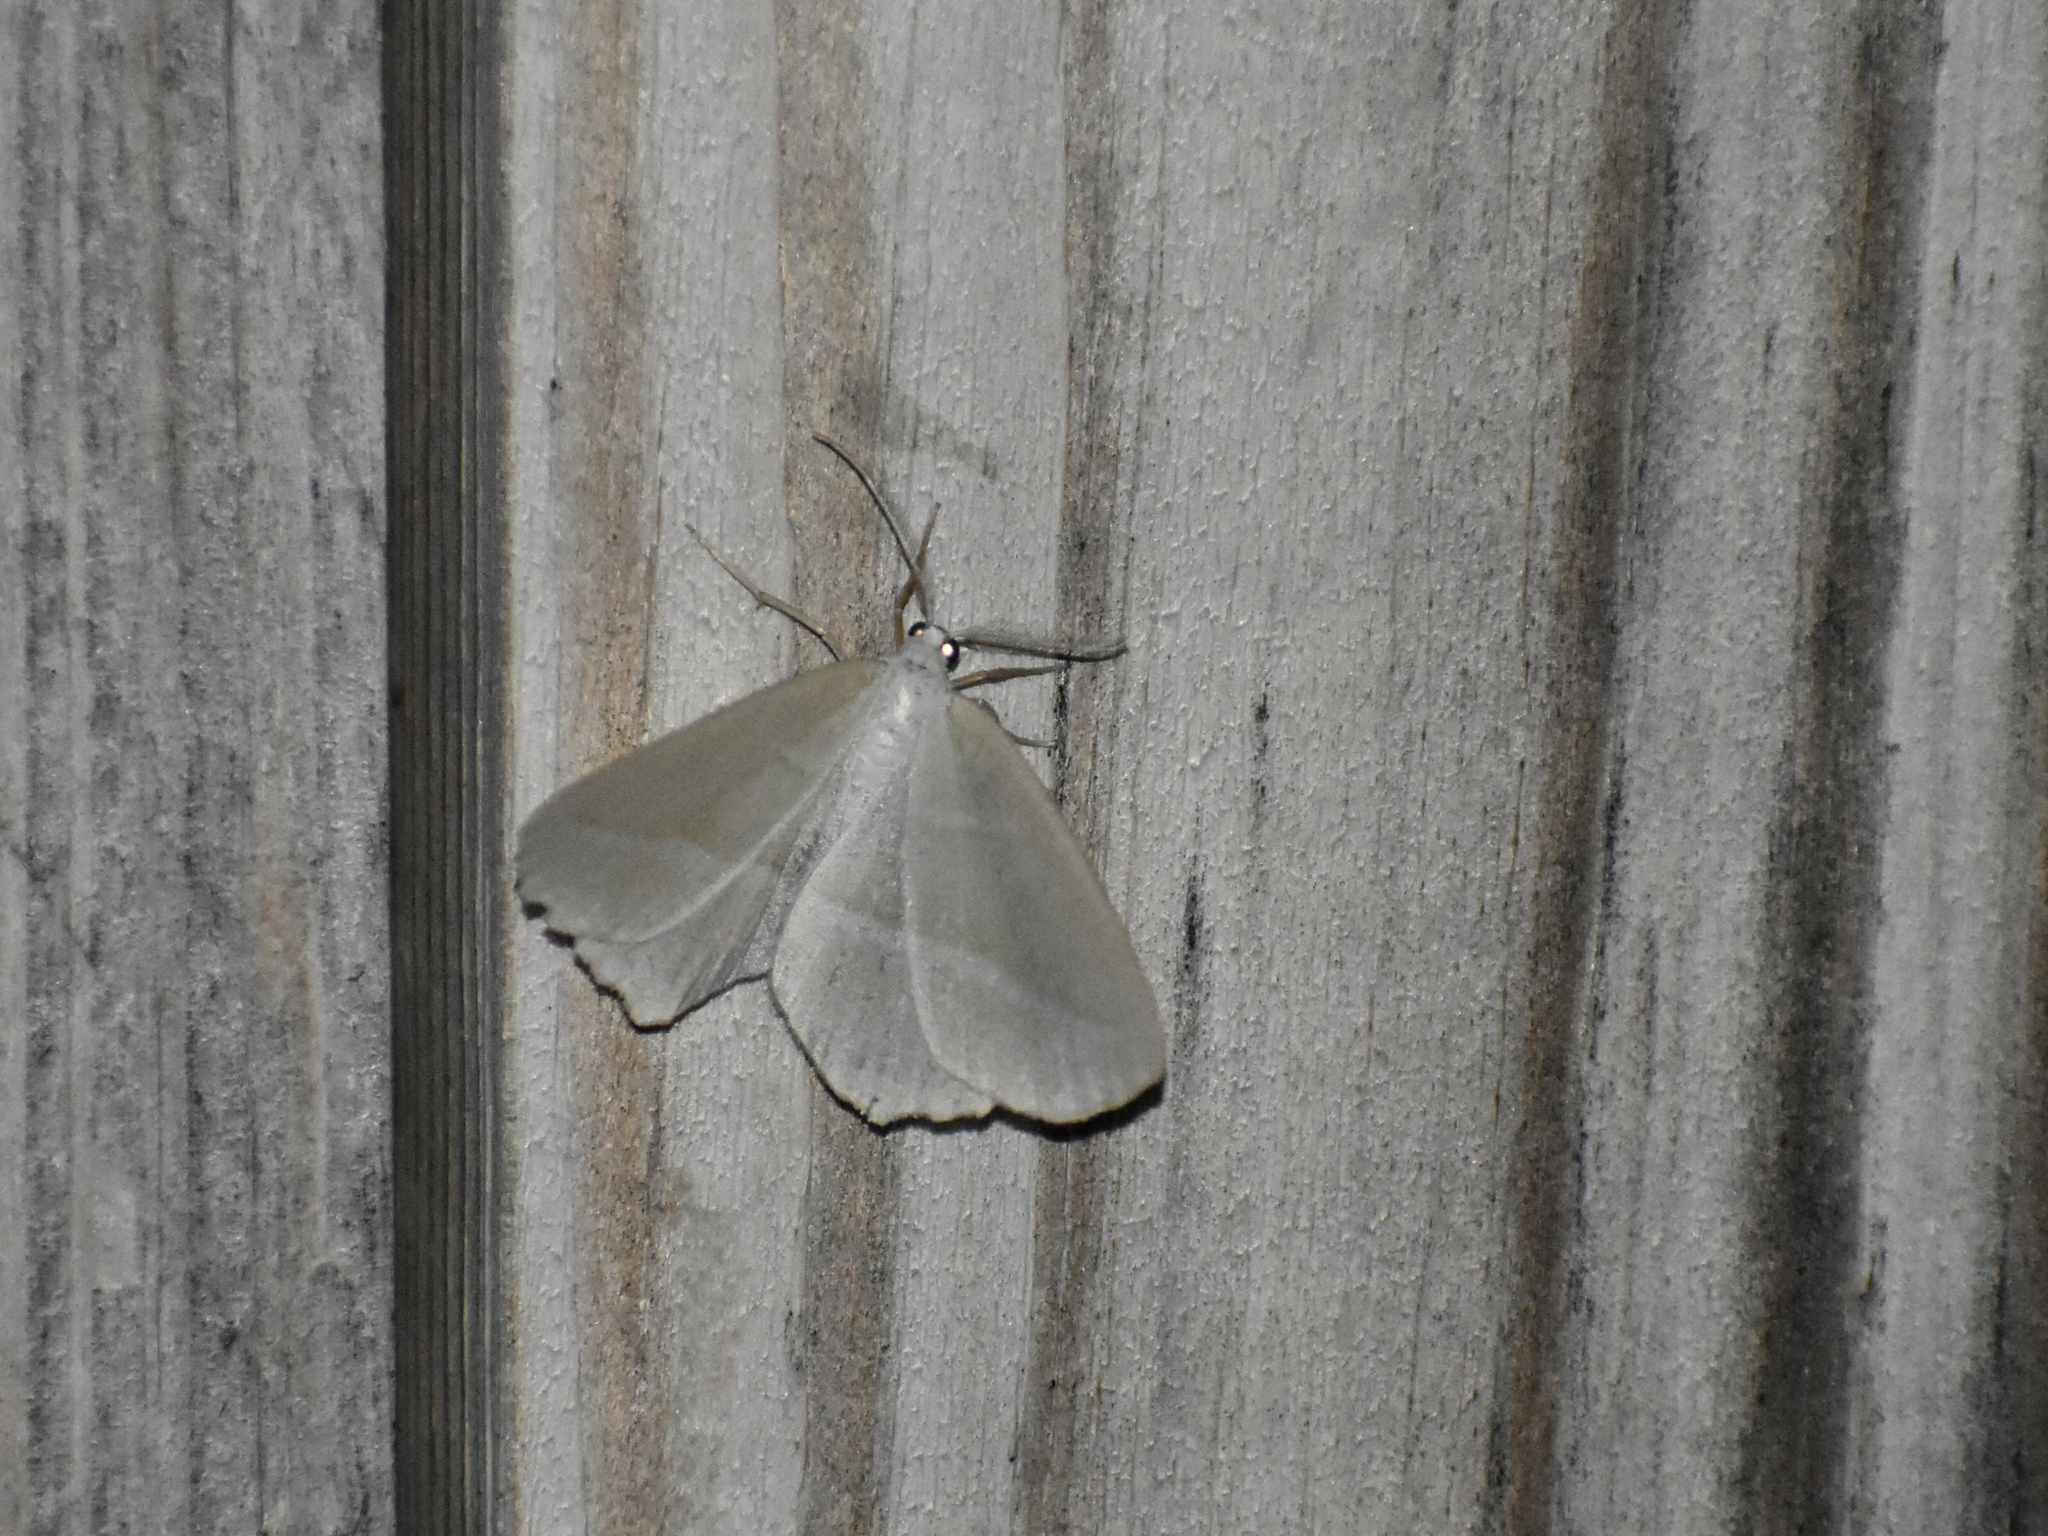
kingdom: Animalia
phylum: Arthropoda
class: Insecta
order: Lepidoptera
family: Geometridae
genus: Campaea
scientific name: Campaea perlata
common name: Fringed looper
